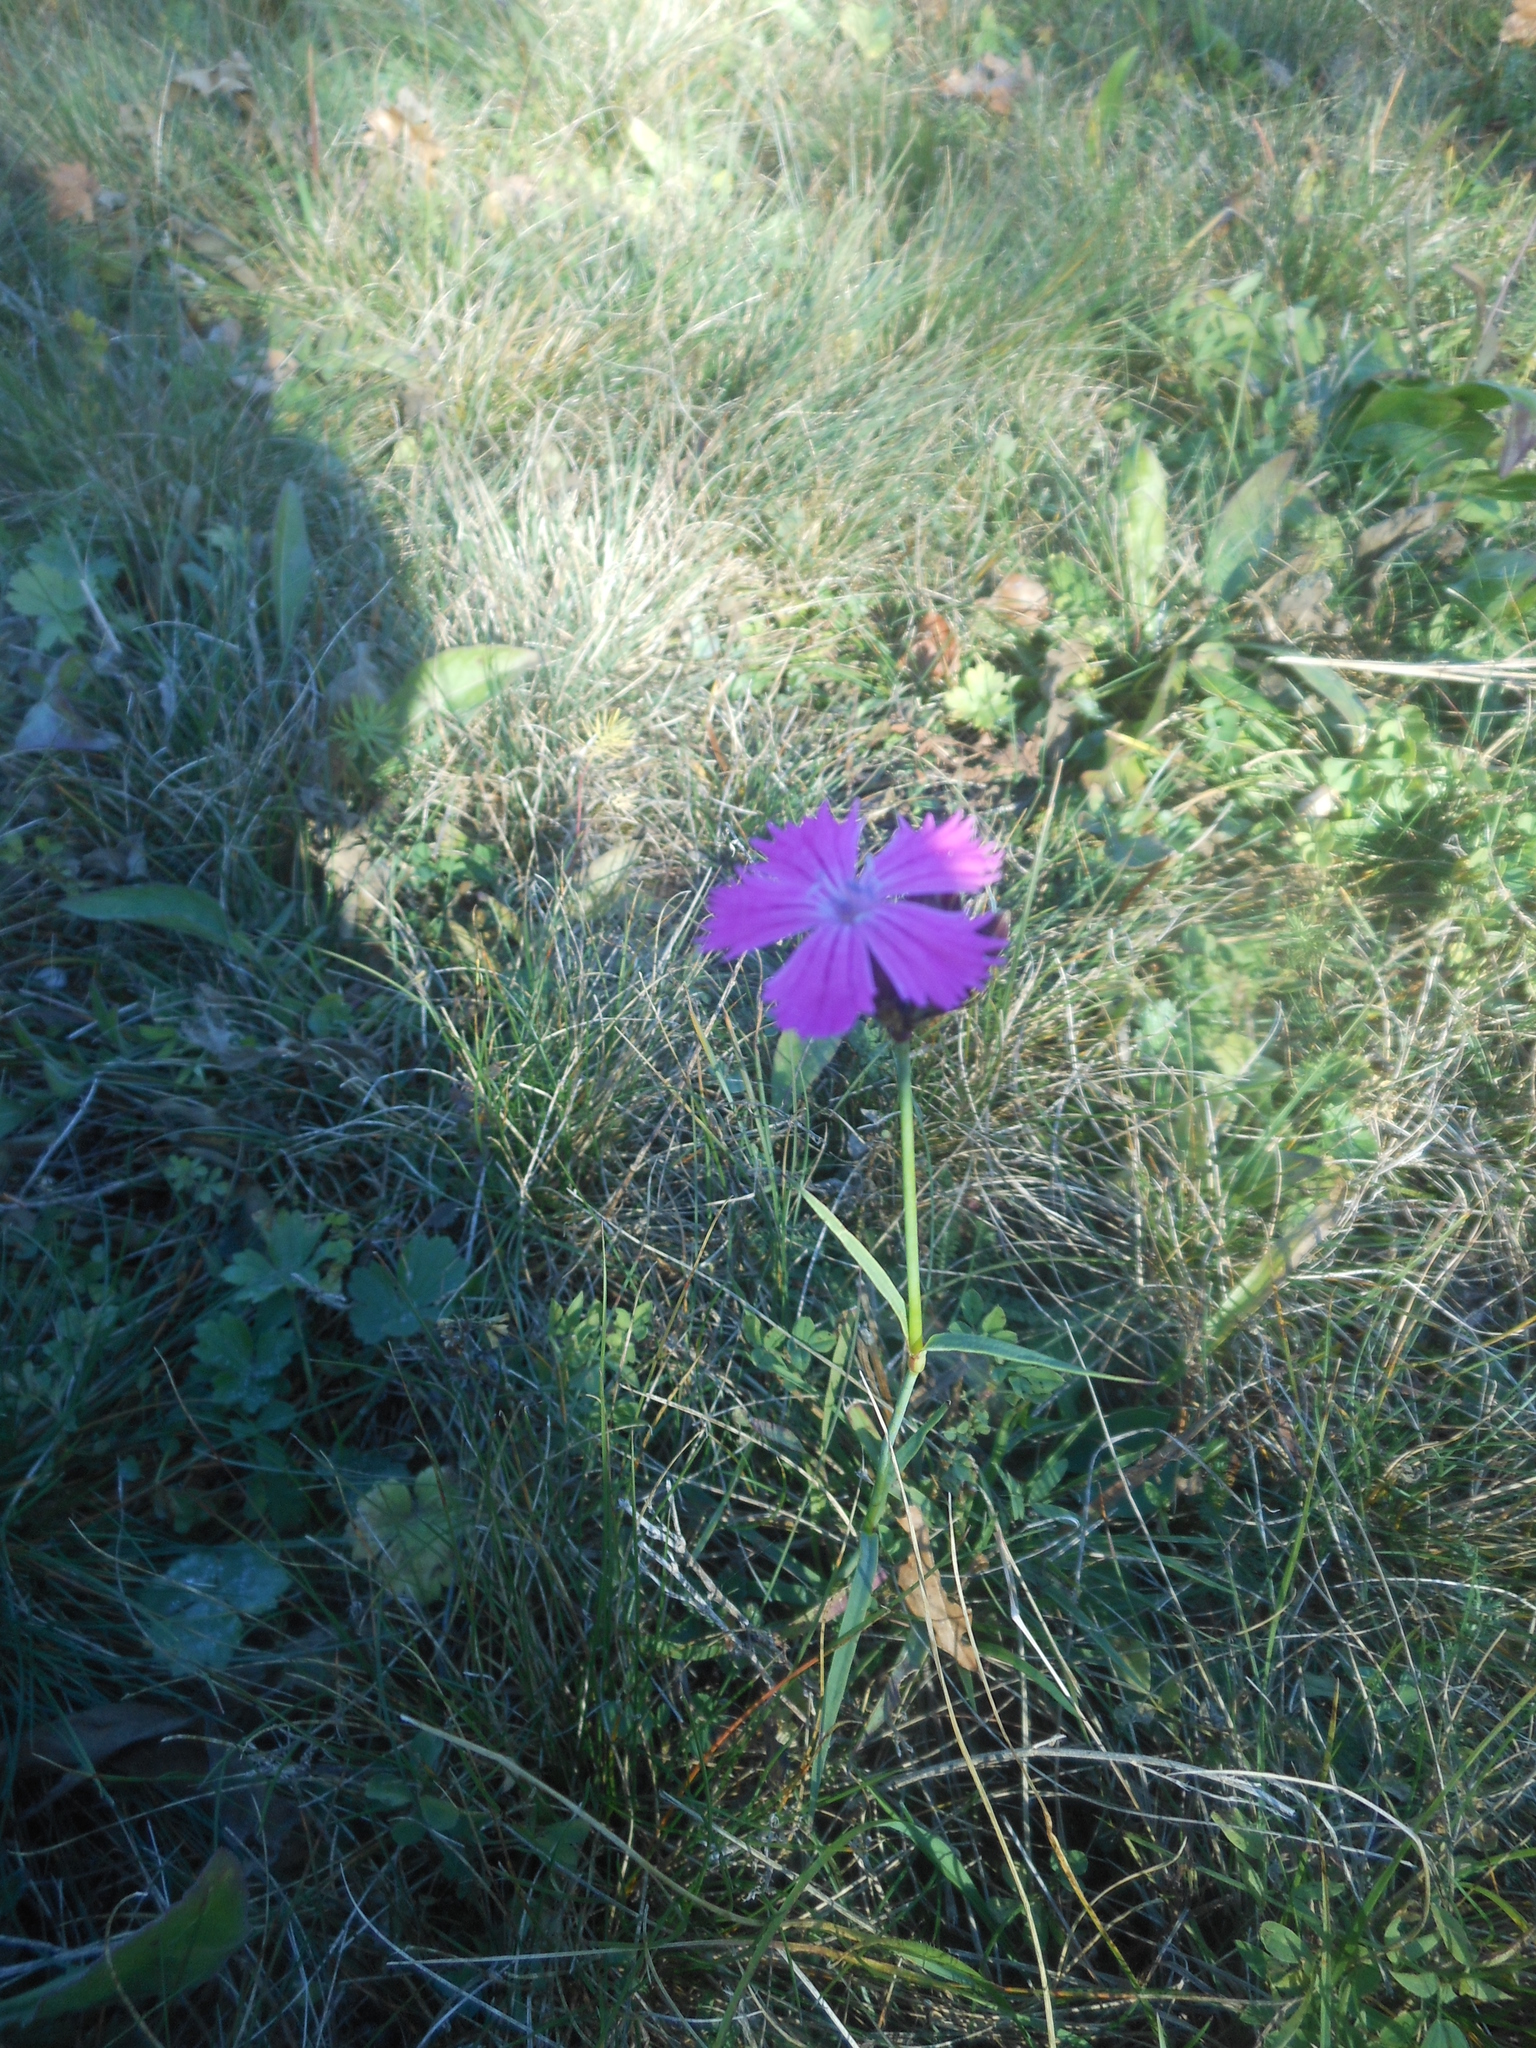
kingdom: Plantae
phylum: Tracheophyta
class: Magnoliopsida
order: Caryophyllales
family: Caryophyllaceae
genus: Dianthus
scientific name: Dianthus carthusianorum
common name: Carthusian pink
